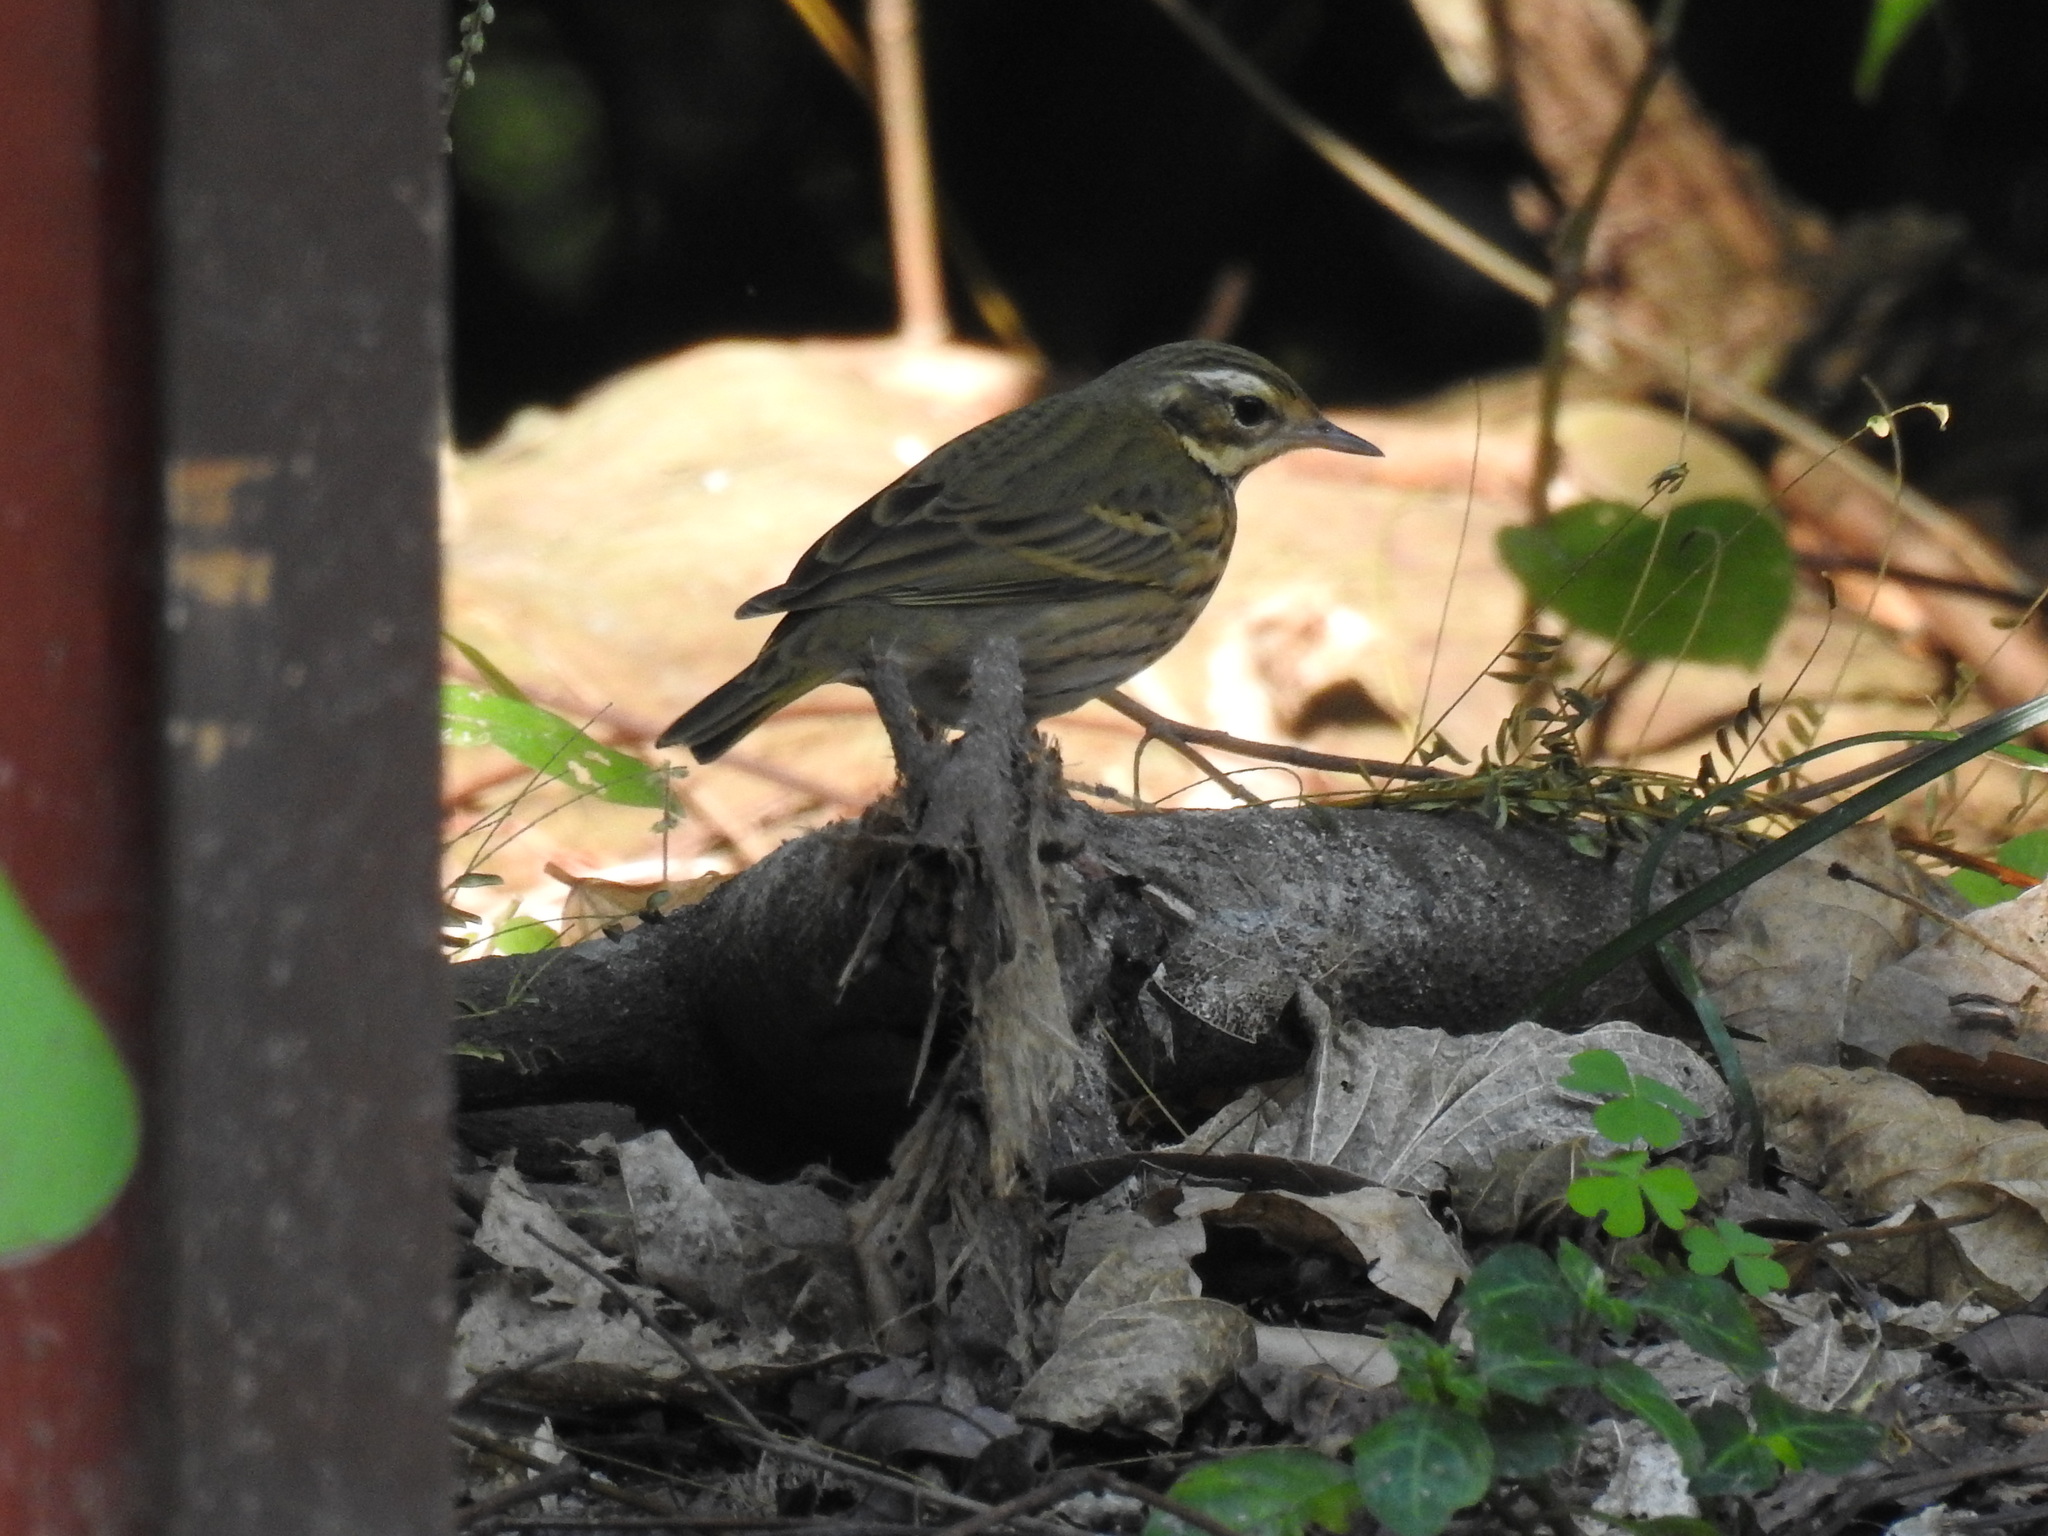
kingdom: Animalia
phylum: Chordata
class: Aves
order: Passeriformes
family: Motacillidae
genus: Anthus
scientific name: Anthus hodgsoni
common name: Olive-backed pipit
